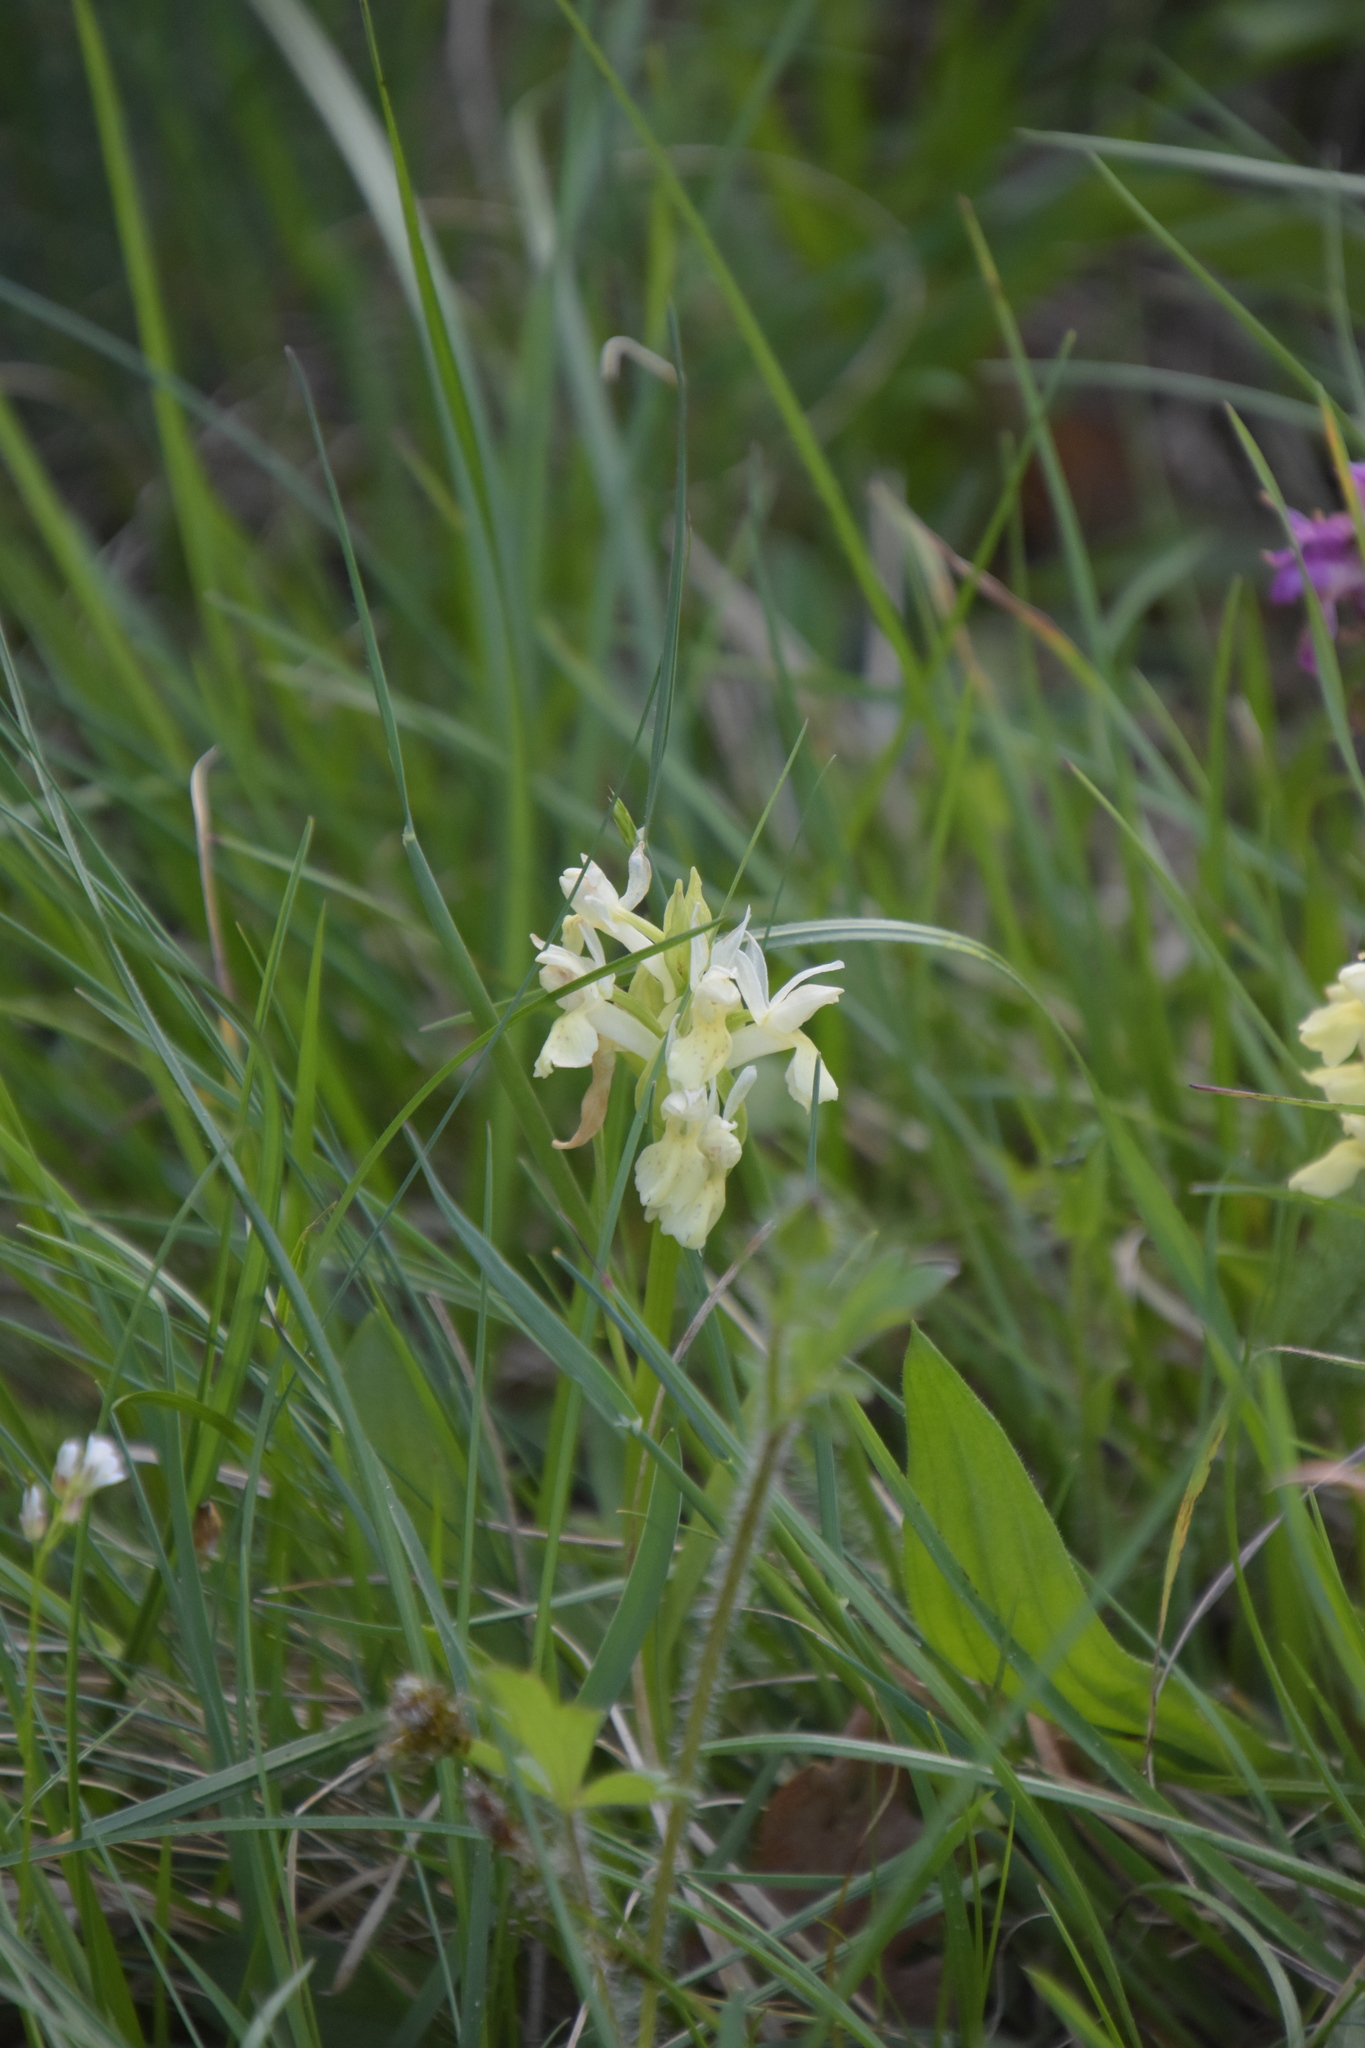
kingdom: Plantae
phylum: Tracheophyta
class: Liliopsida
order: Asparagales
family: Orchidaceae
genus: Dactylorhiza
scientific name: Dactylorhiza sambucina
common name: Elder-flowered orchid
